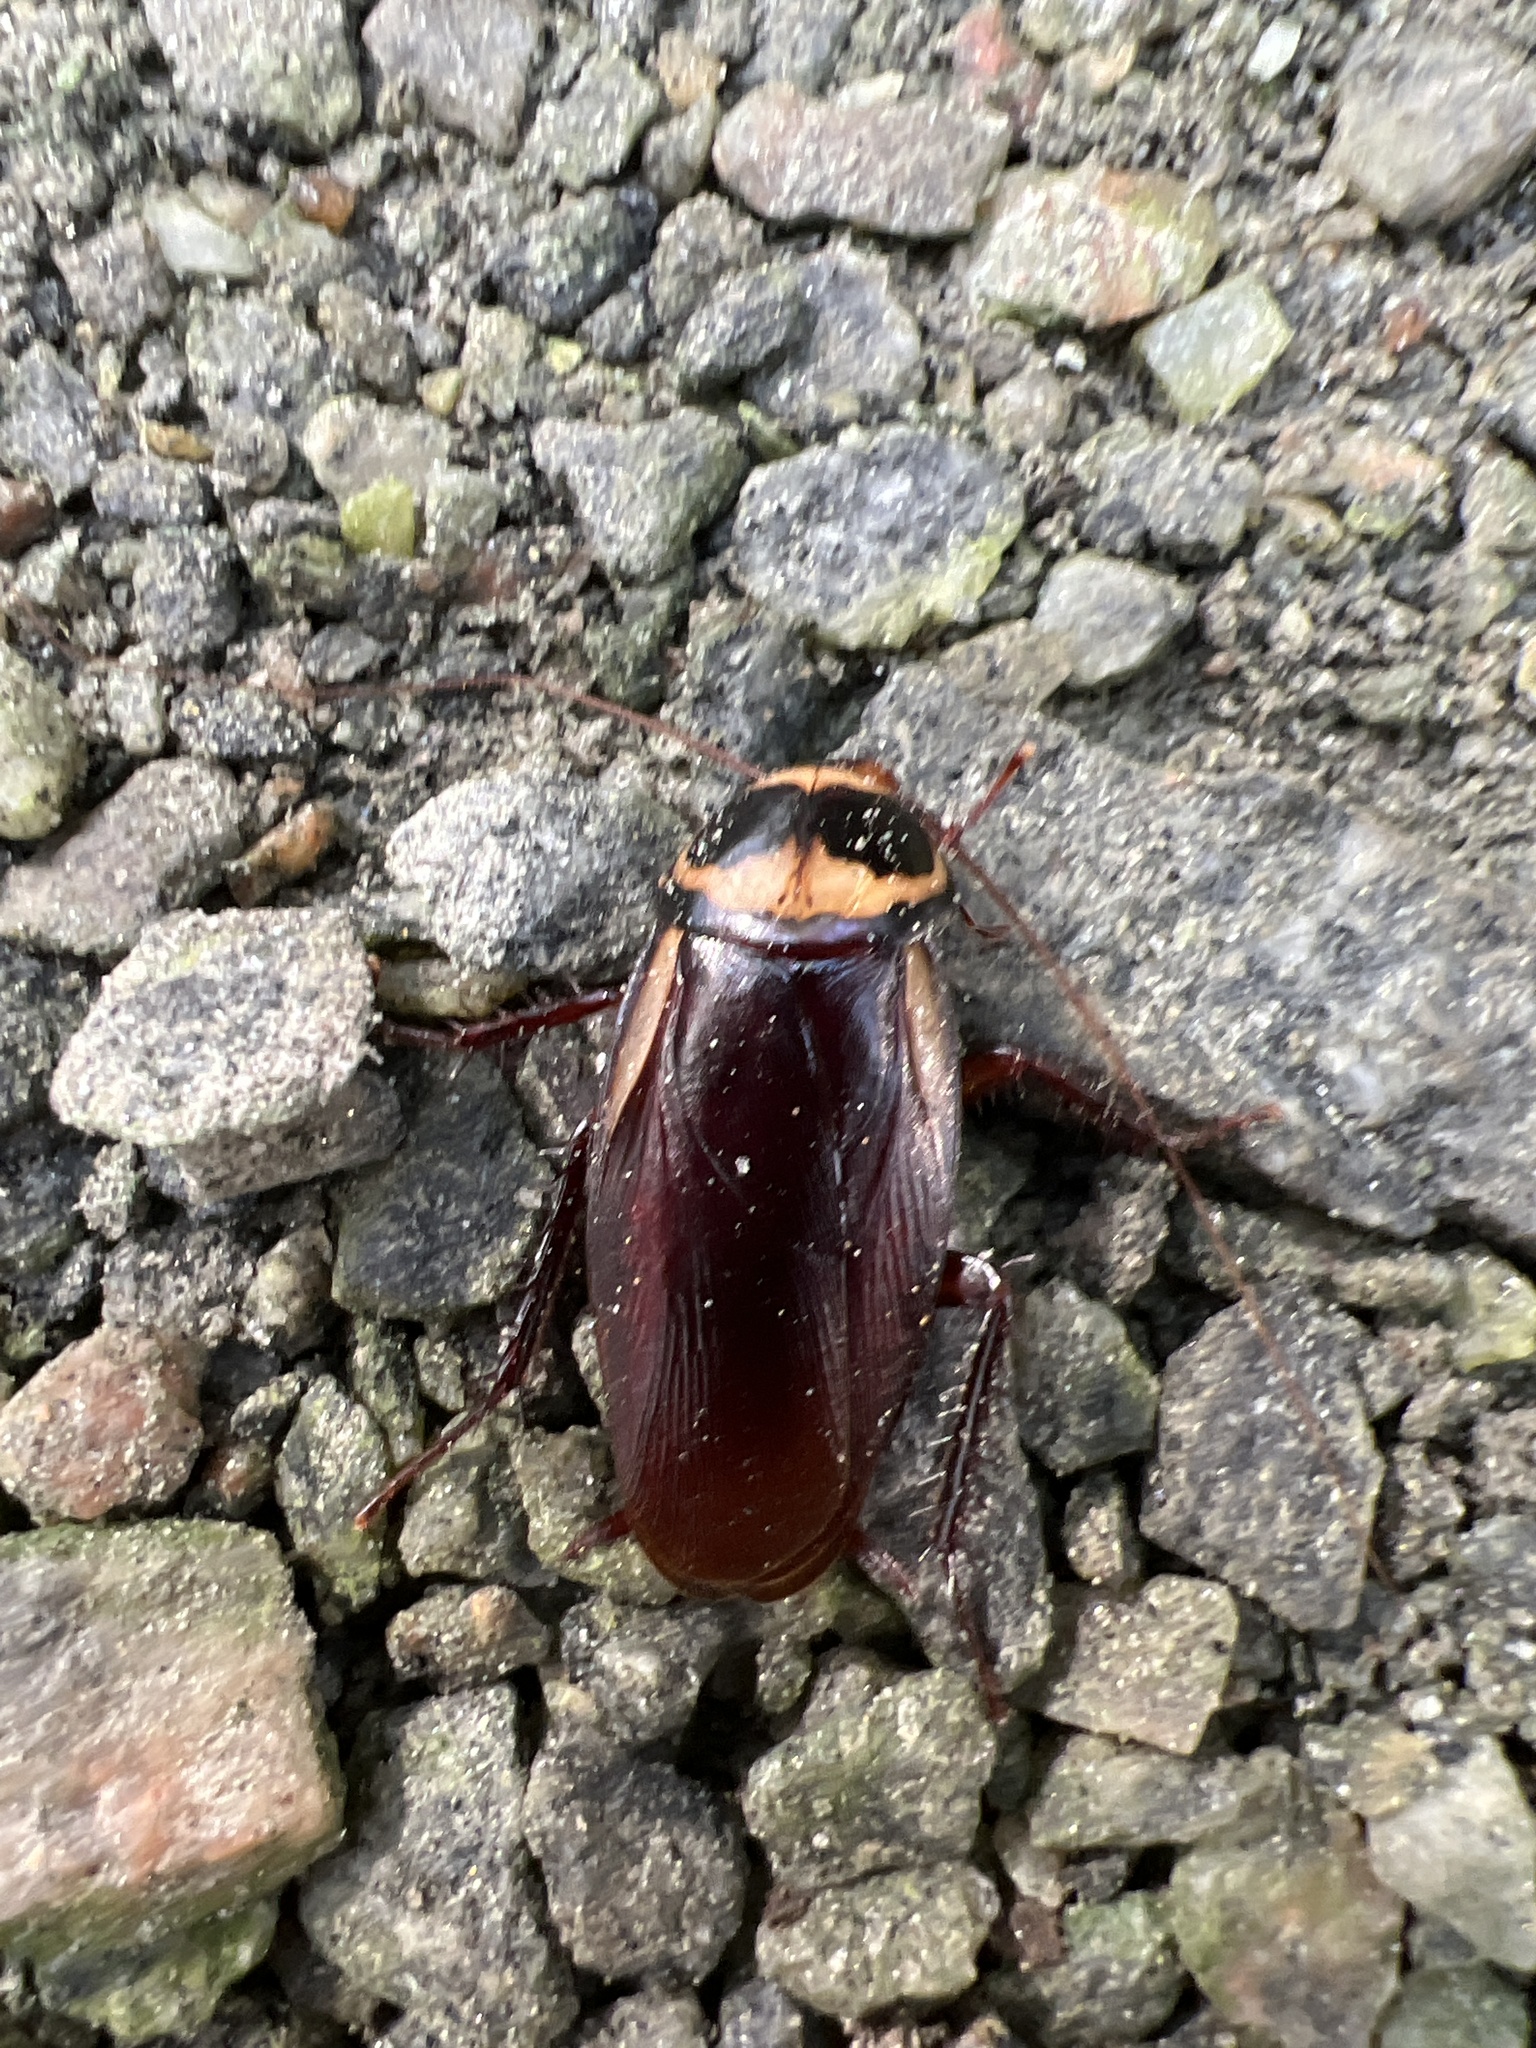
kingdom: Animalia
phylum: Arthropoda
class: Insecta
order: Blattodea
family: Blattidae
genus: Periplaneta
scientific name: Periplaneta australasiae
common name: Australian cockroach
